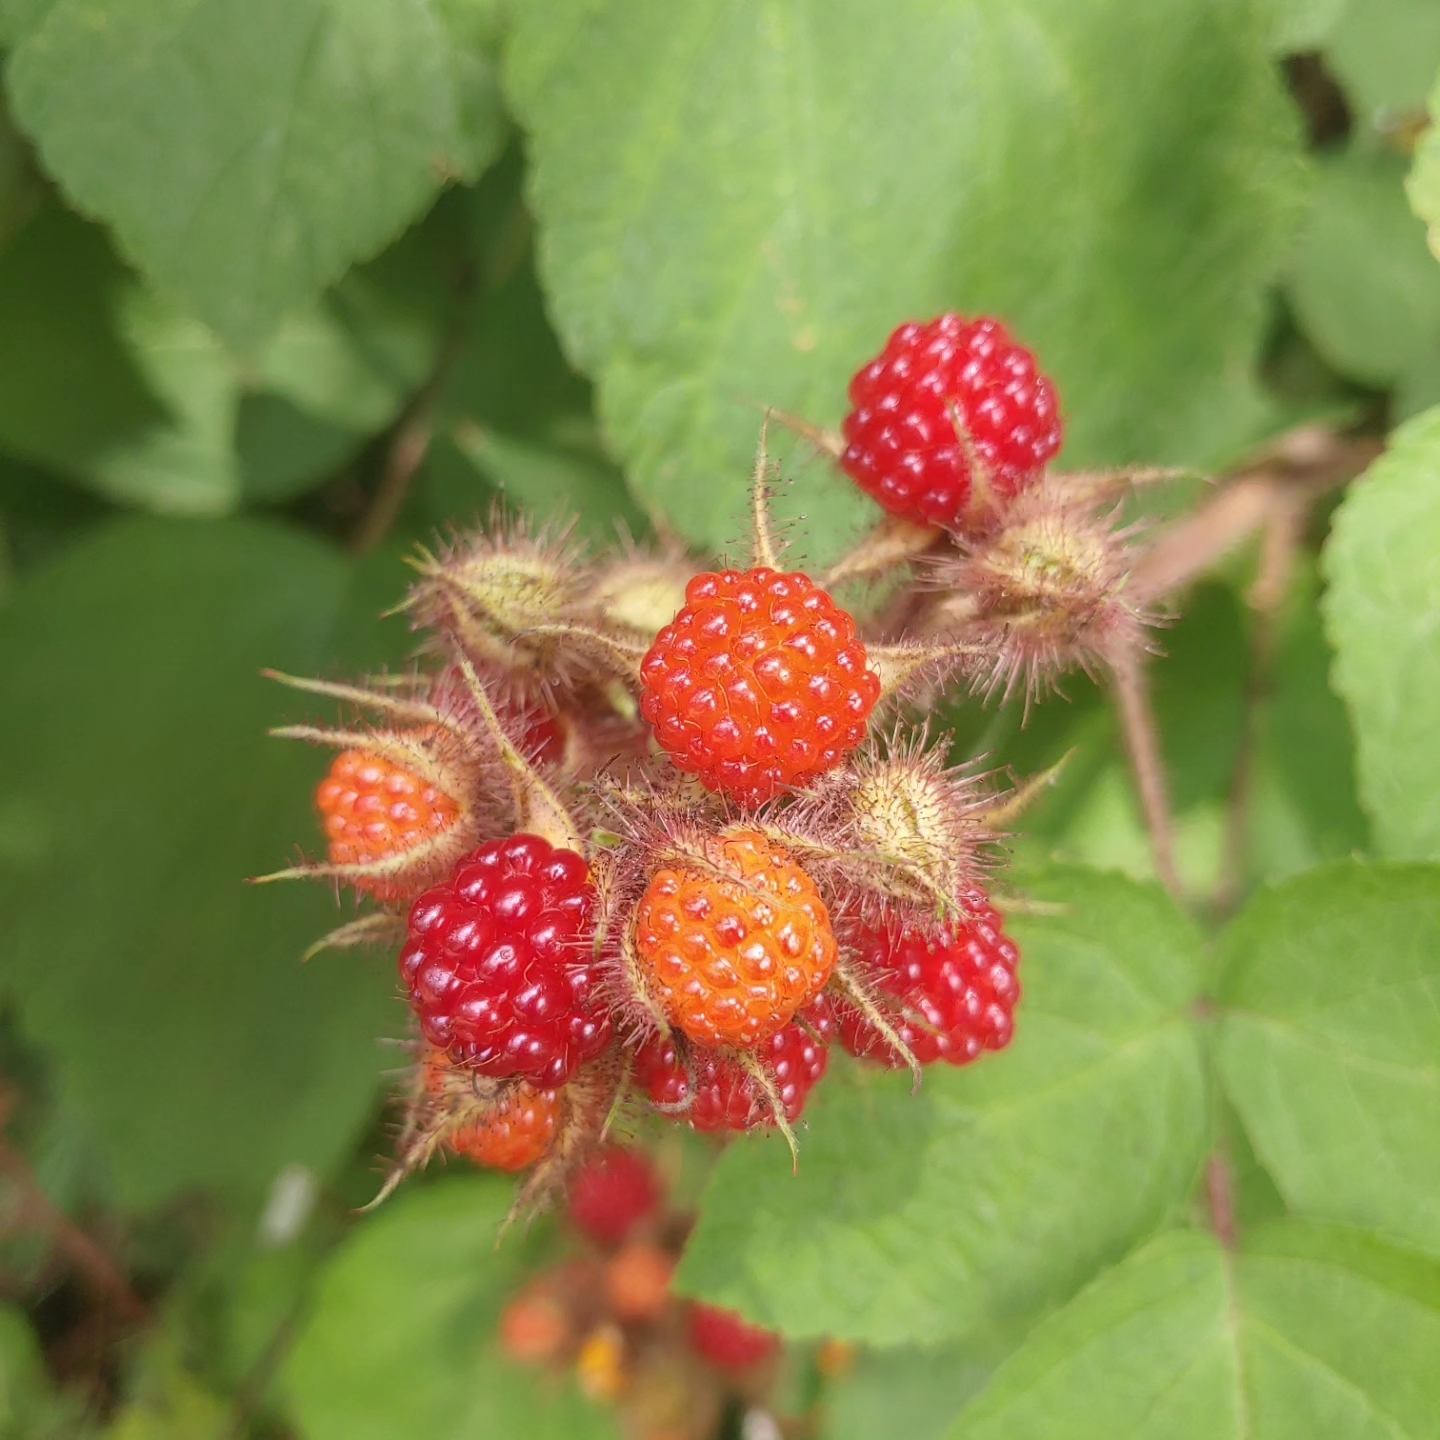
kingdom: Plantae
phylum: Tracheophyta
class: Magnoliopsida
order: Rosales
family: Rosaceae
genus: Rubus
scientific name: Rubus phoenicolasius
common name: Japanese wineberry
